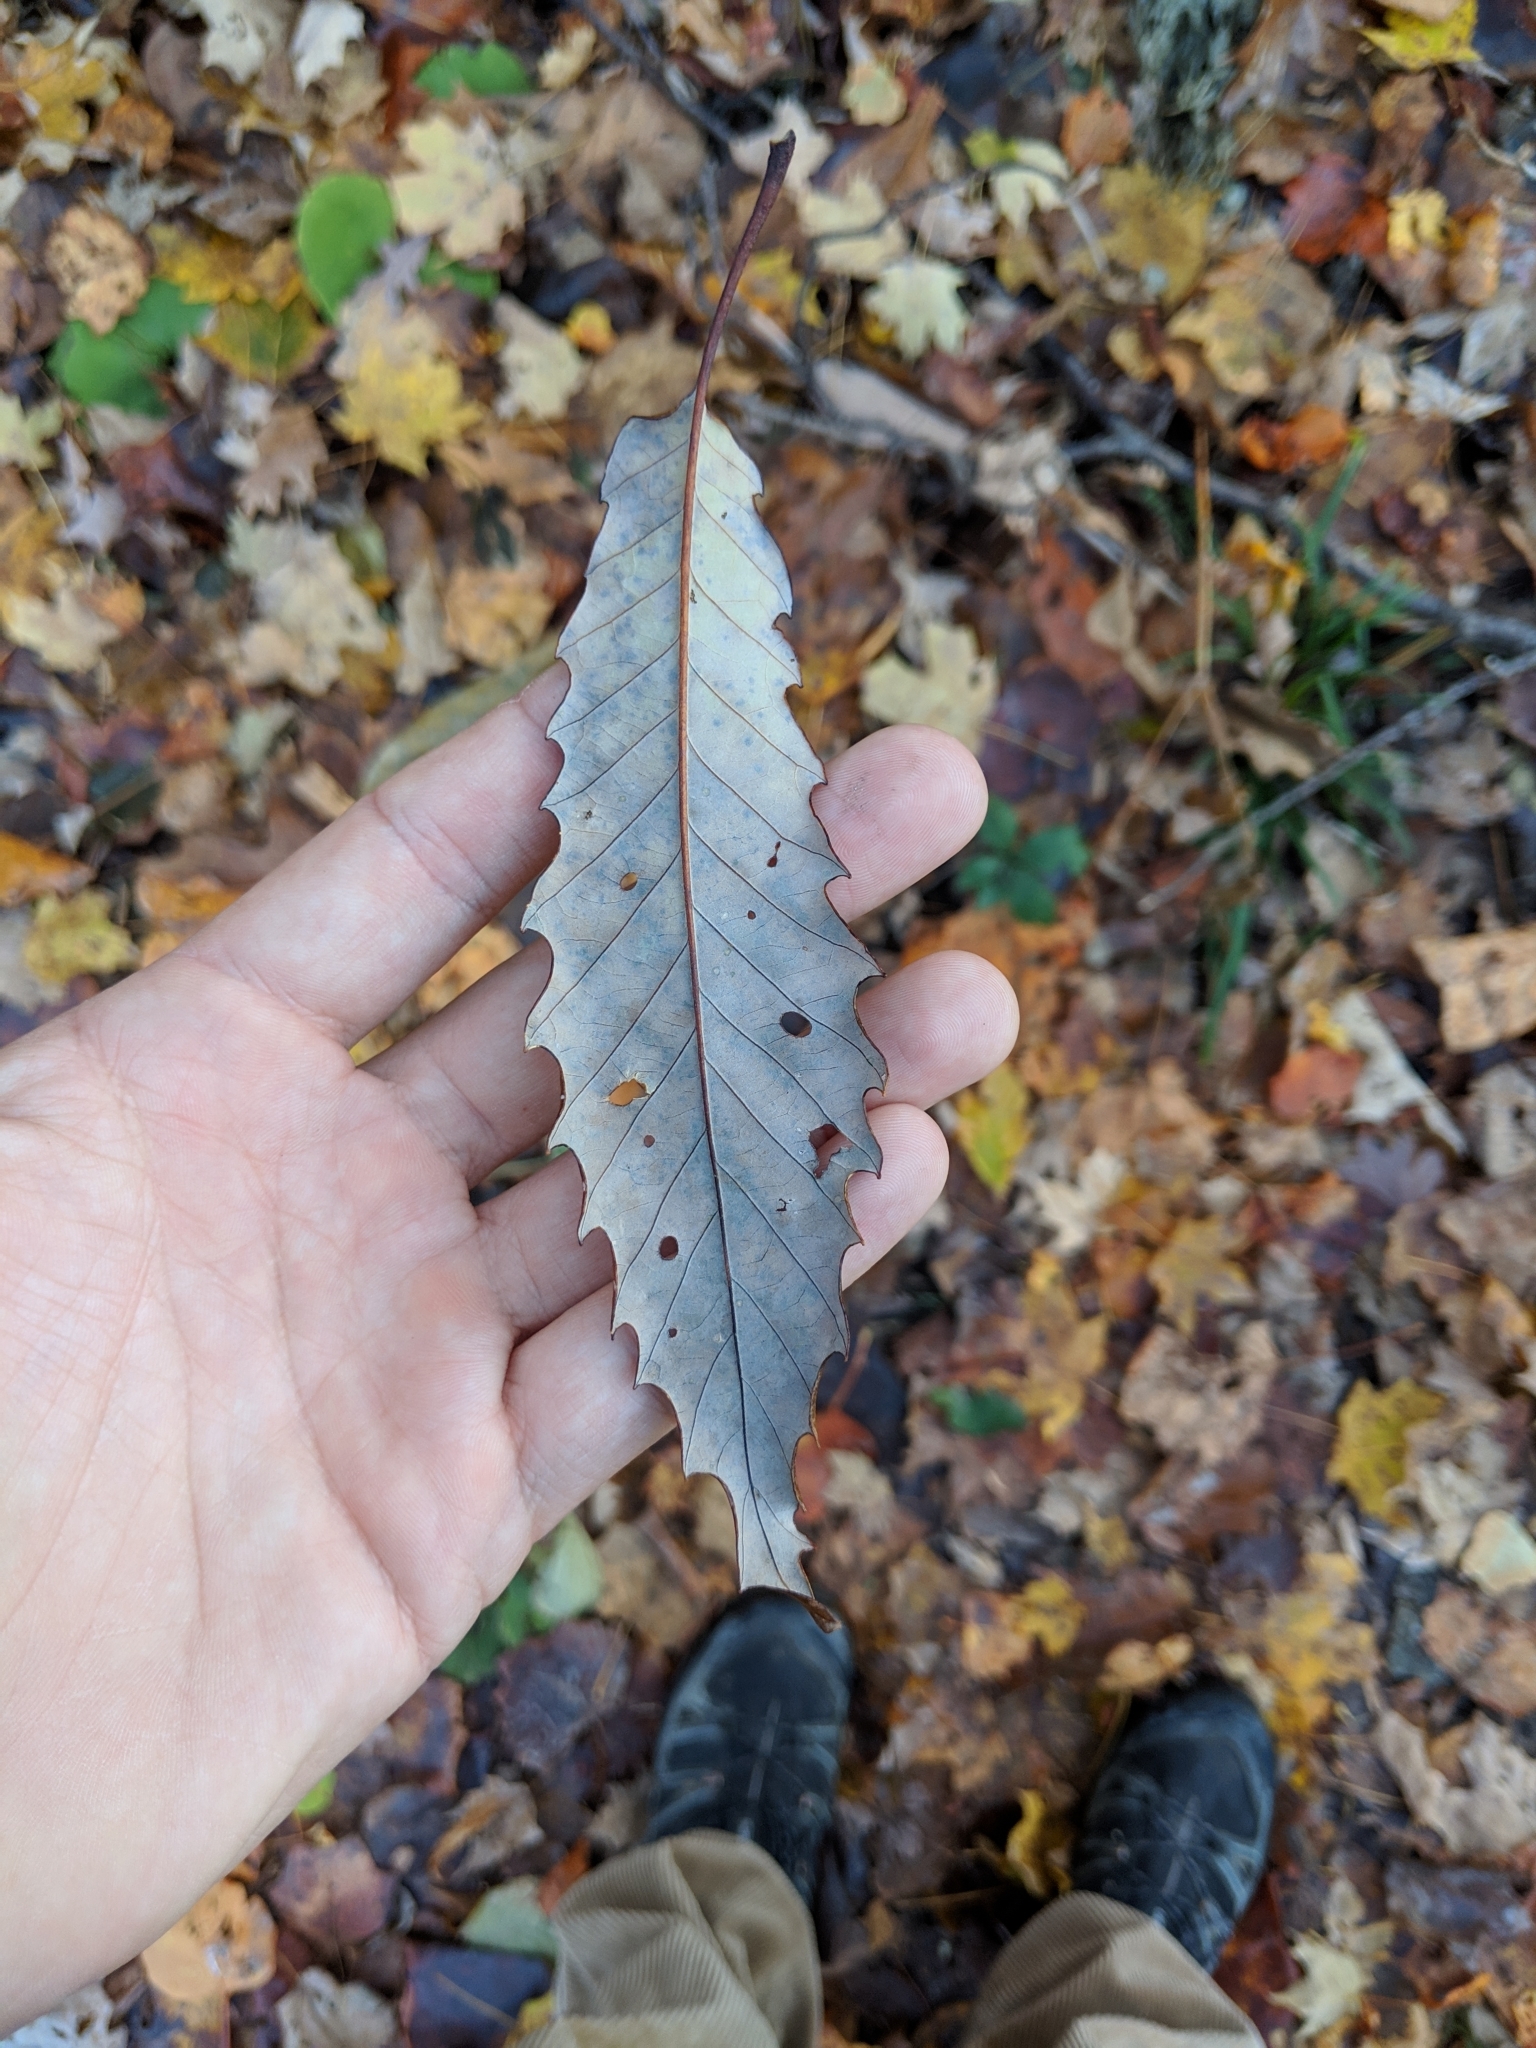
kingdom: Plantae
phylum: Tracheophyta
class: Magnoliopsida
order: Fagales
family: Fagaceae
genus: Quercus
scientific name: Quercus muehlenbergii
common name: Chinkapin oak
